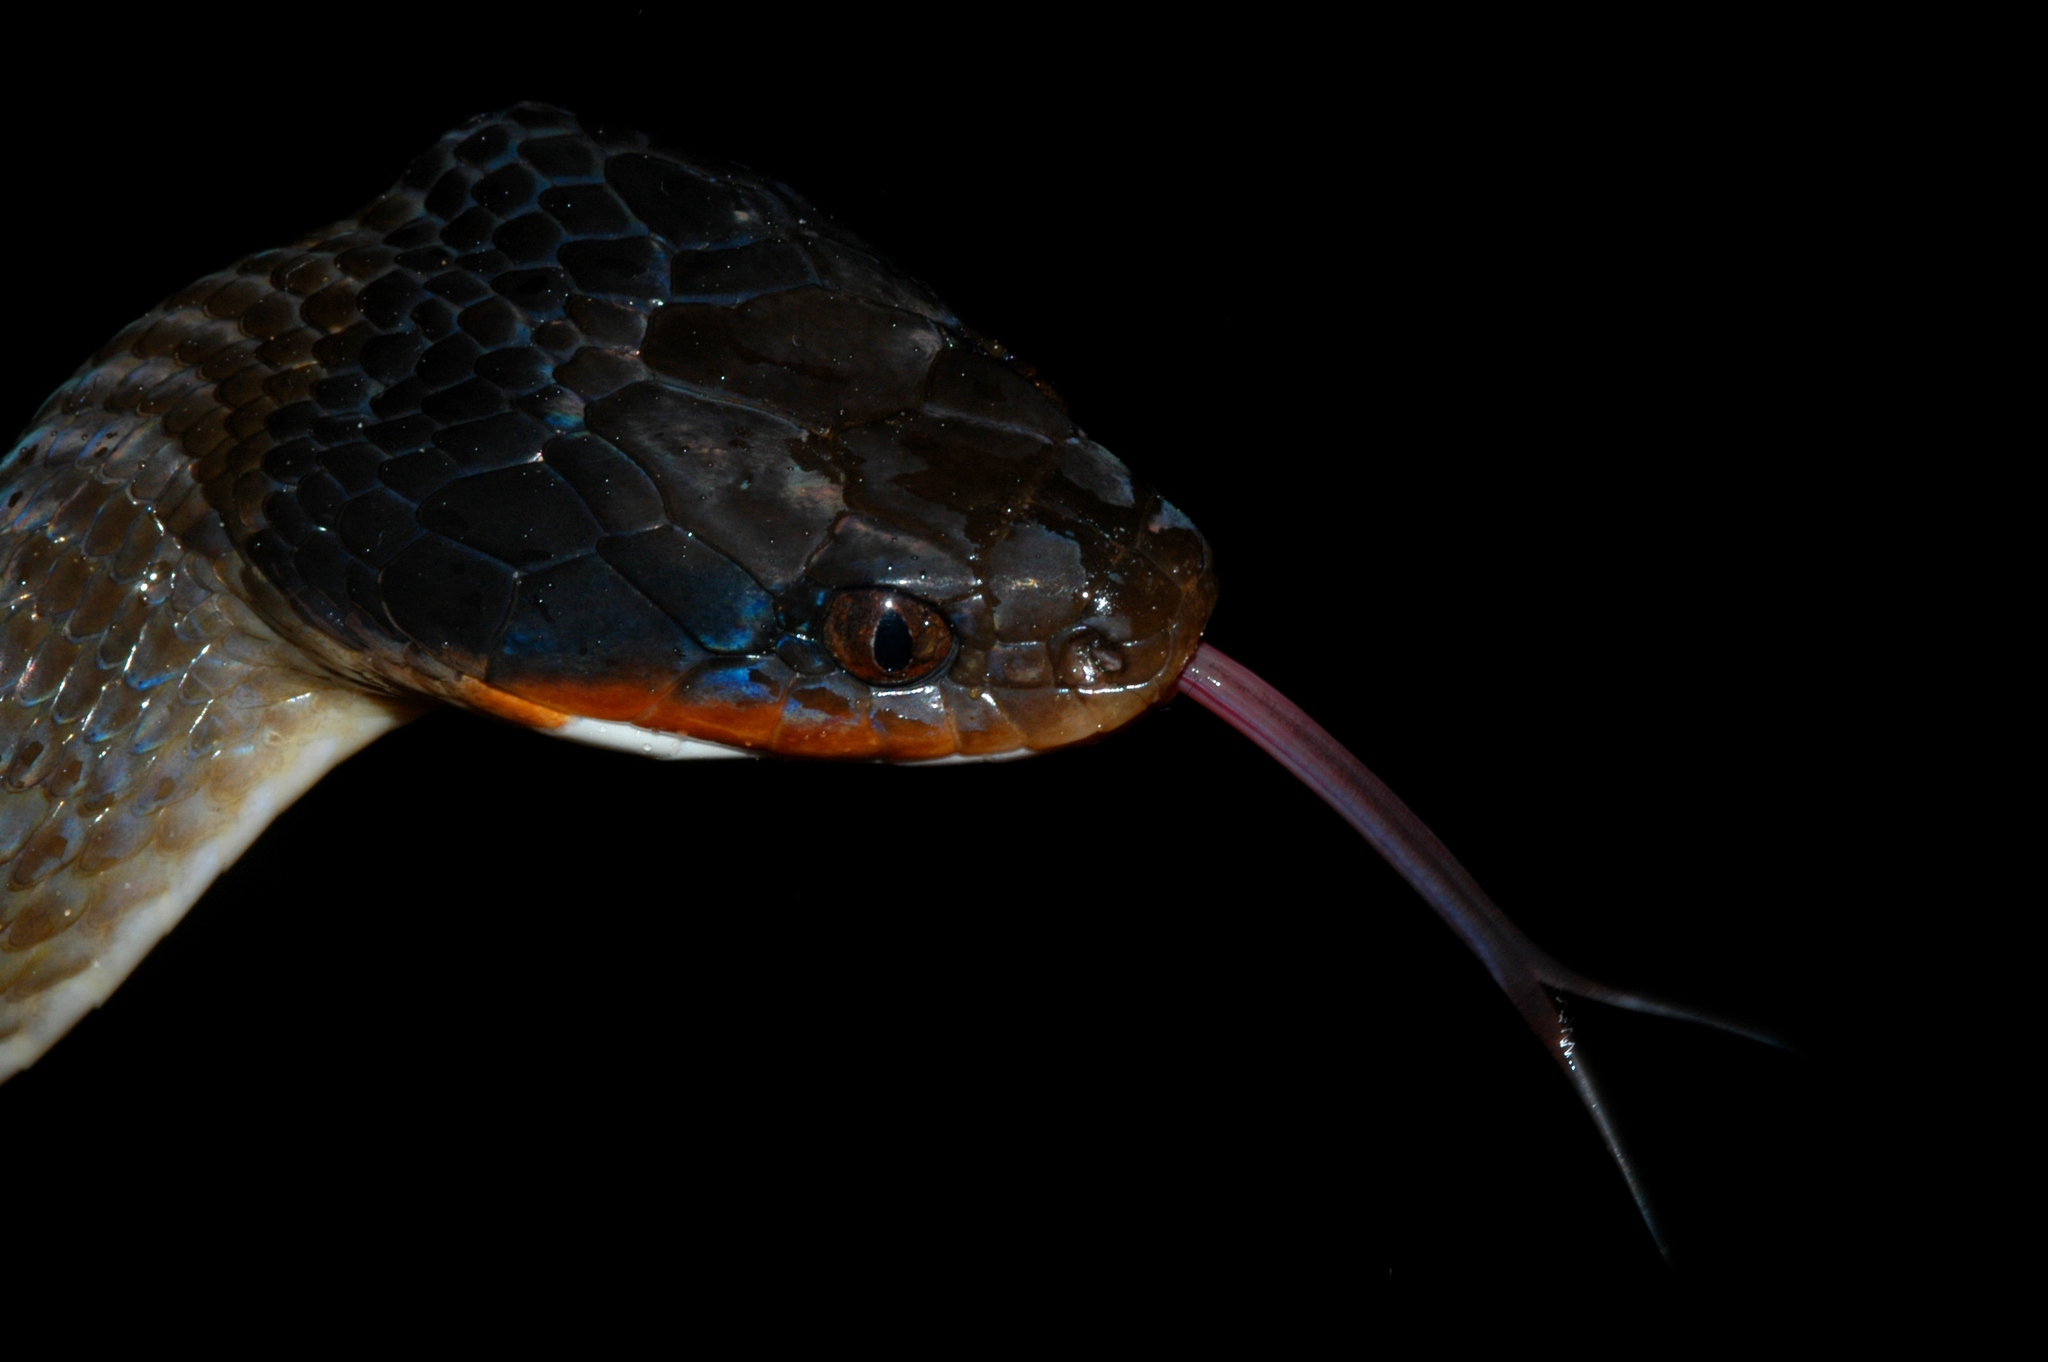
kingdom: Animalia
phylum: Chordata
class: Squamata
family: Colubridae
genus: Crotaphopeltis
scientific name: Crotaphopeltis hotamboeia
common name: Red-lipped snake
